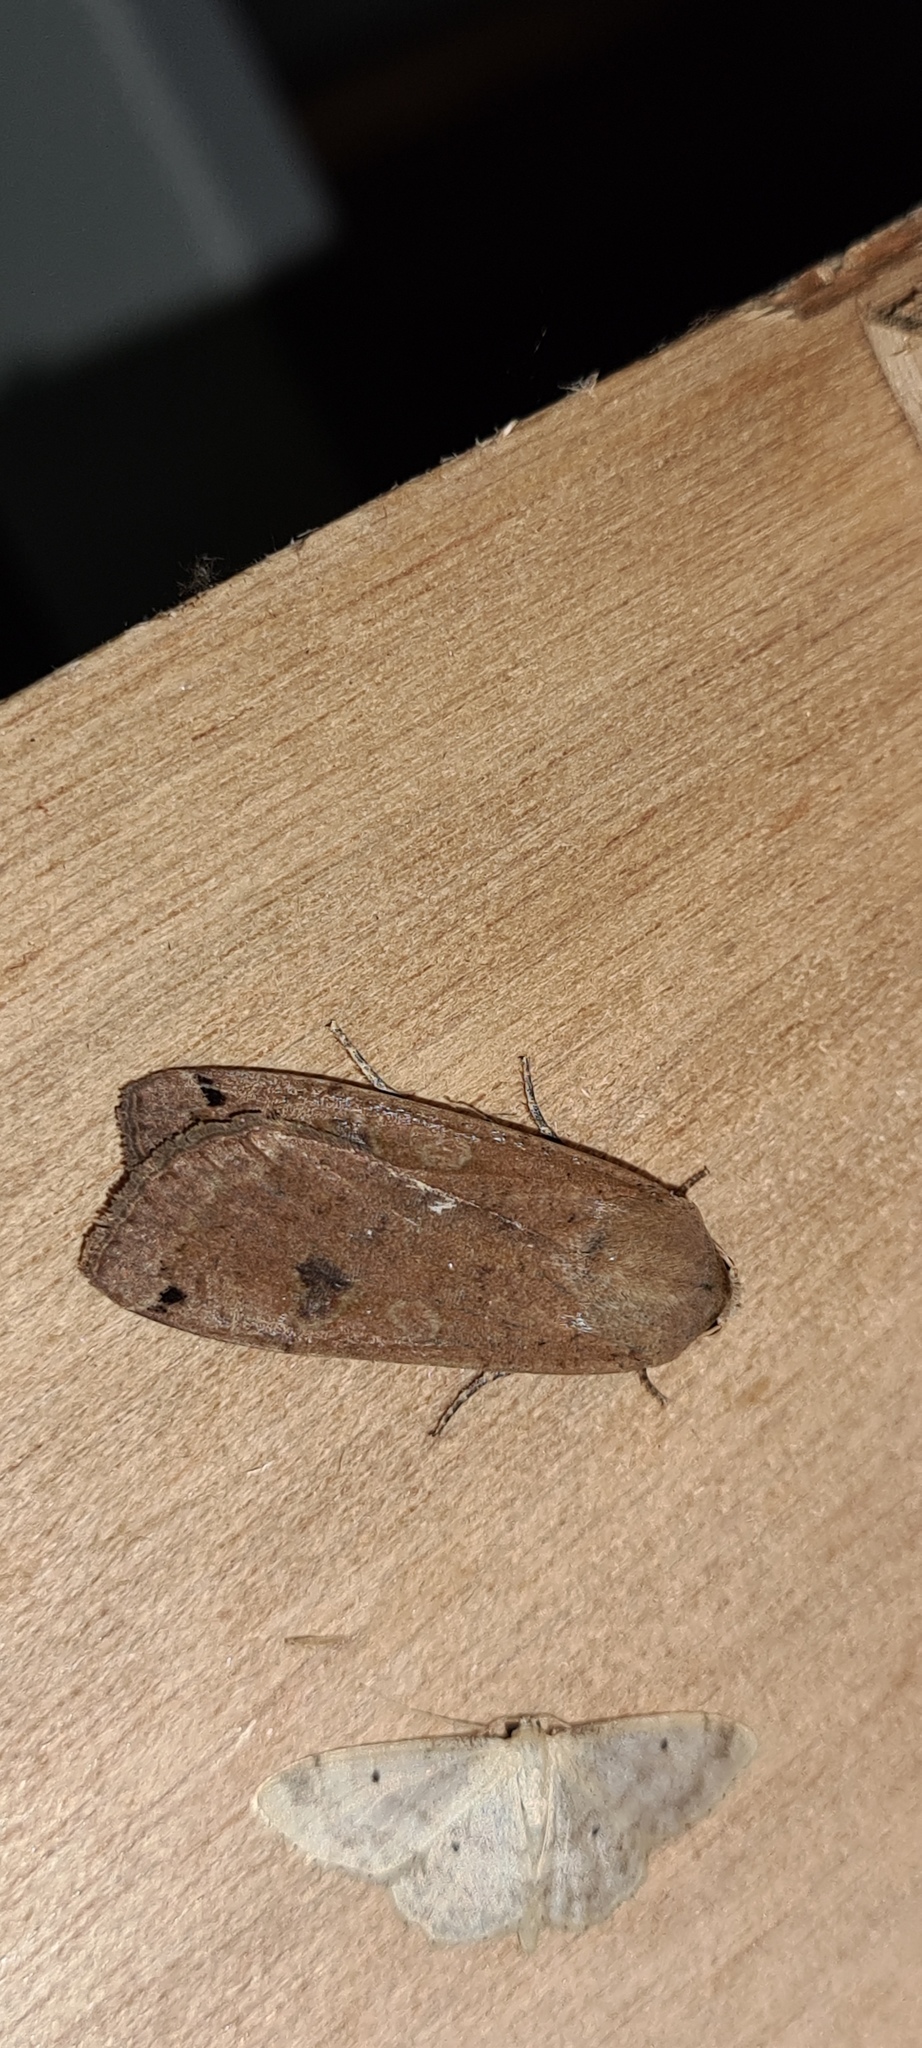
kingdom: Animalia
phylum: Arthropoda
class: Insecta
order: Lepidoptera
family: Noctuidae
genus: Noctua
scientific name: Noctua pronuba
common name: Large yellow underwing
